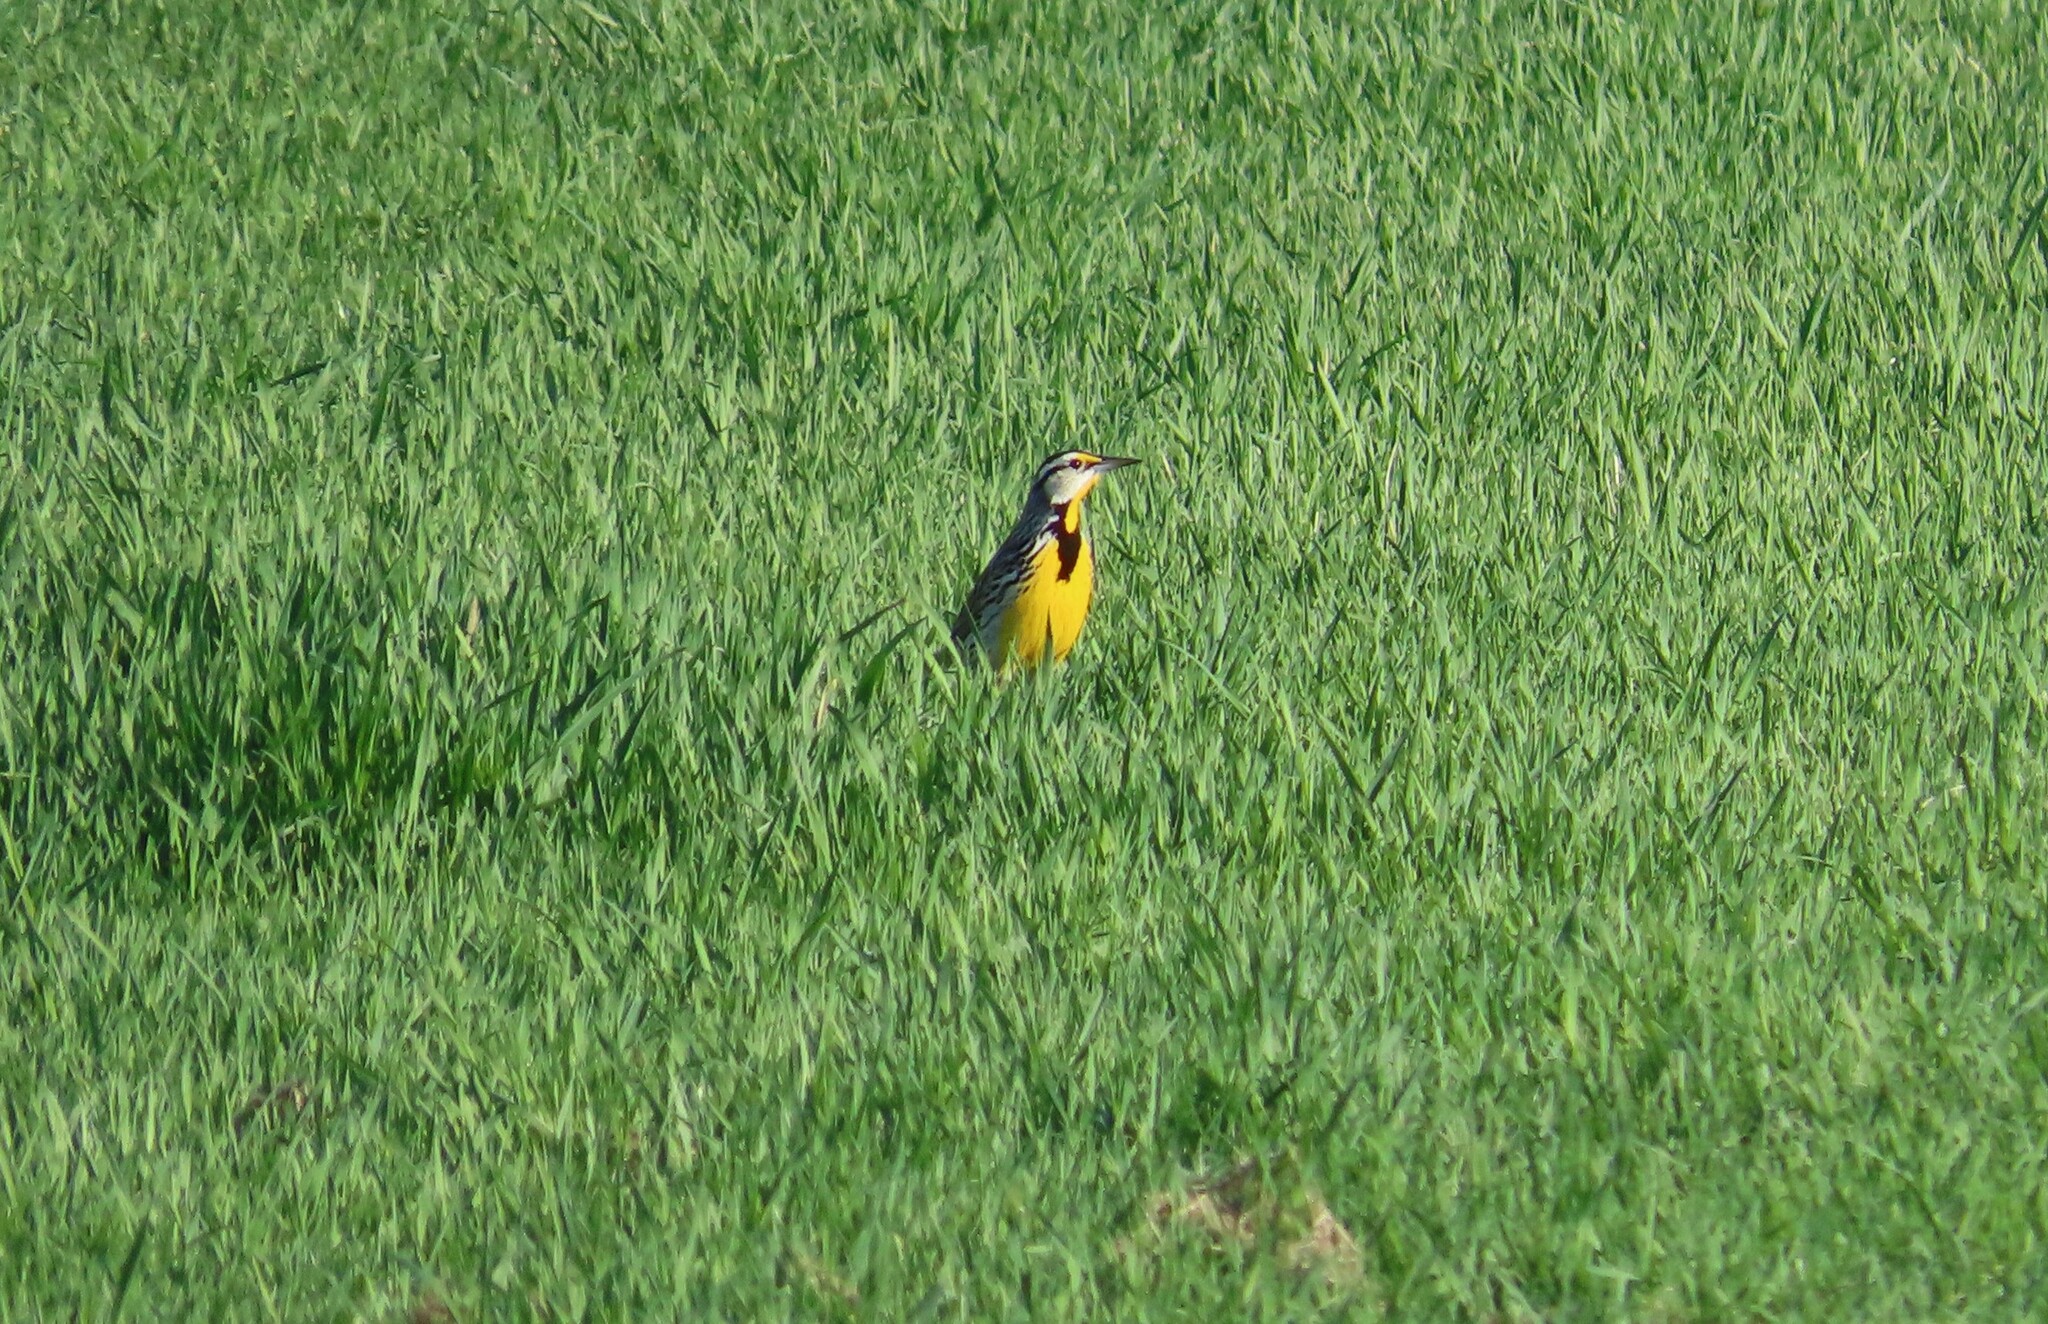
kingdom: Animalia
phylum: Chordata
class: Aves
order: Passeriformes
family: Icteridae
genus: Sturnella
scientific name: Sturnella magna
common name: Eastern meadowlark
